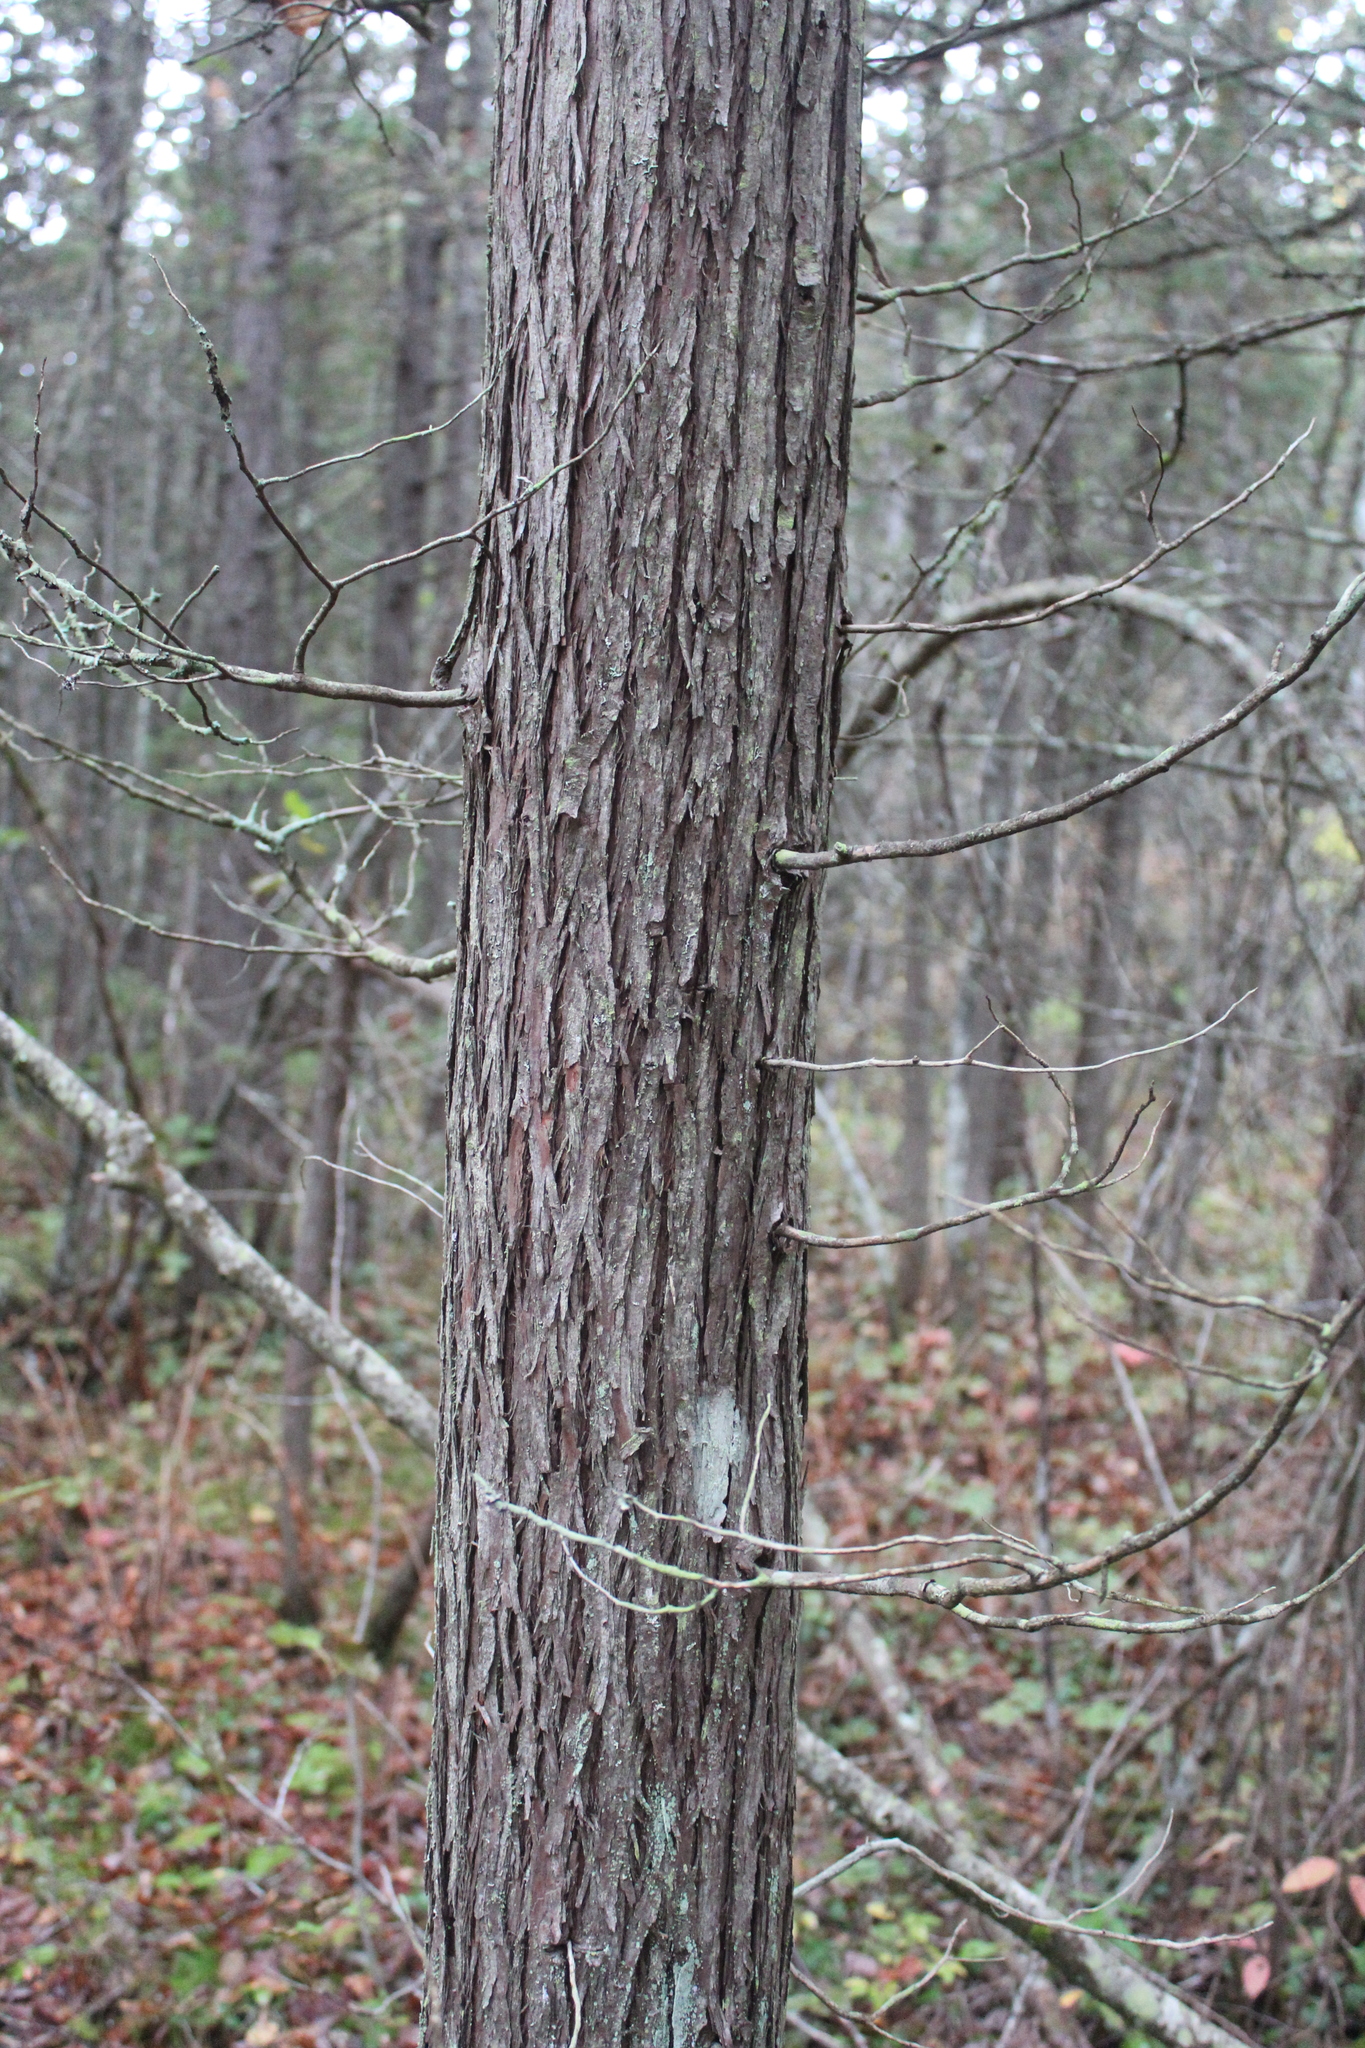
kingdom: Plantae
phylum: Tracheophyta
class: Pinopsida
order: Pinales
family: Cupressaceae
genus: Chamaecyparis
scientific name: Chamaecyparis thyoides
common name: Atlantic white cedar
